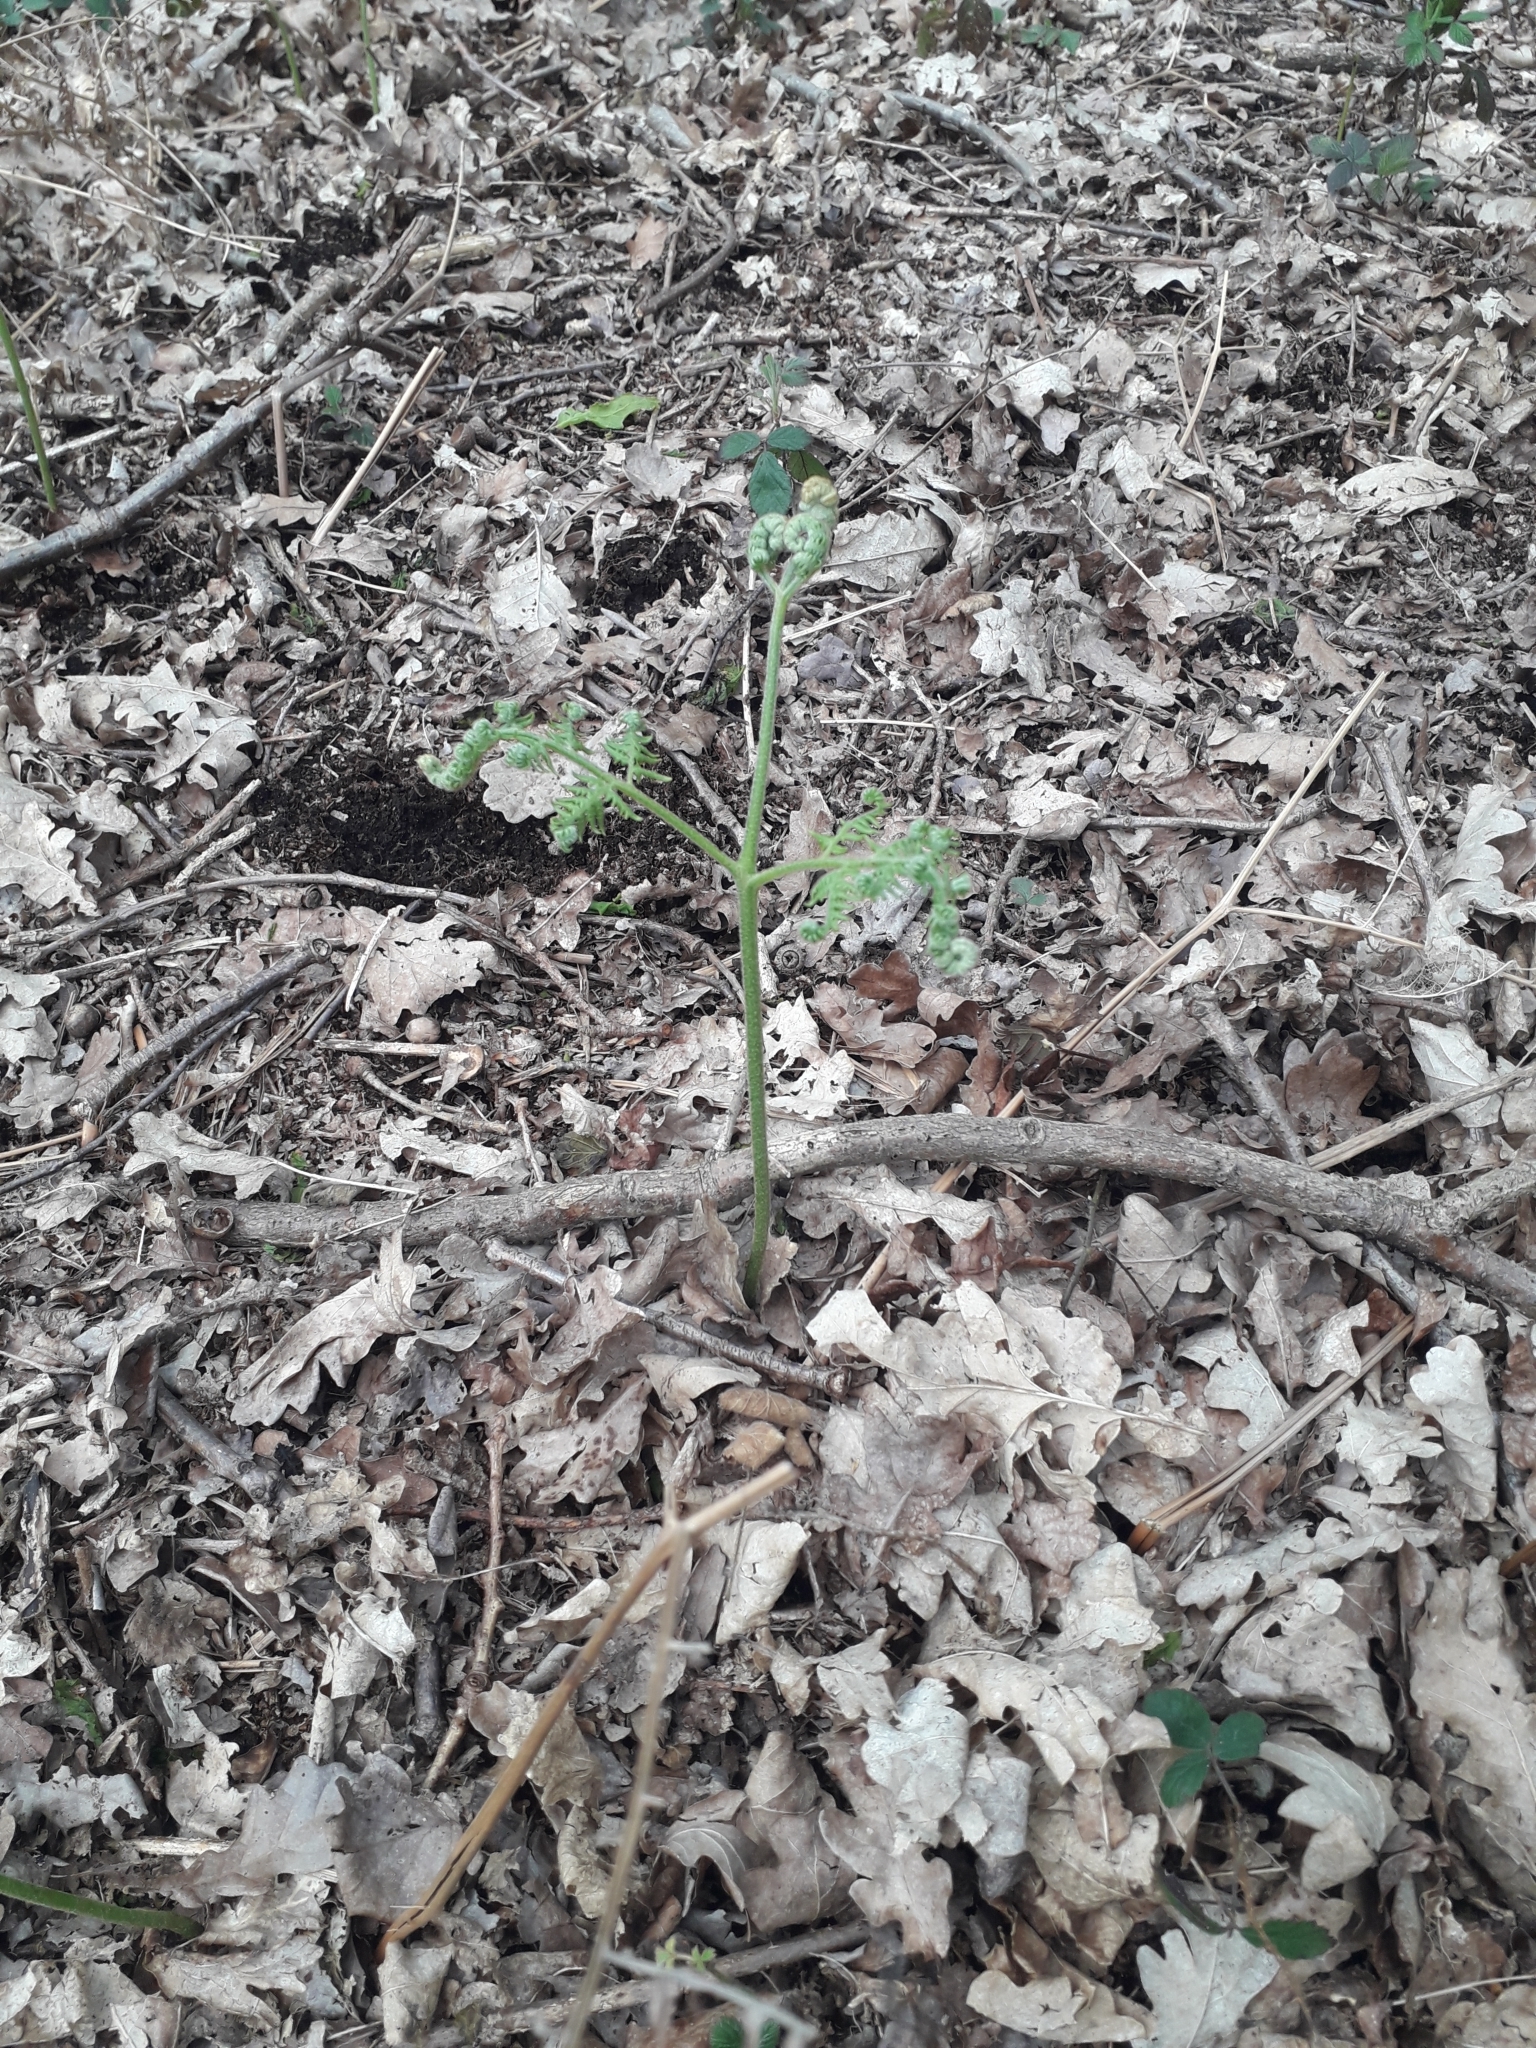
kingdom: Plantae
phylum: Tracheophyta
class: Polypodiopsida
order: Polypodiales
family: Dennstaedtiaceae
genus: Pteridium
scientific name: Pteridium aquilinum
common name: Bracken
